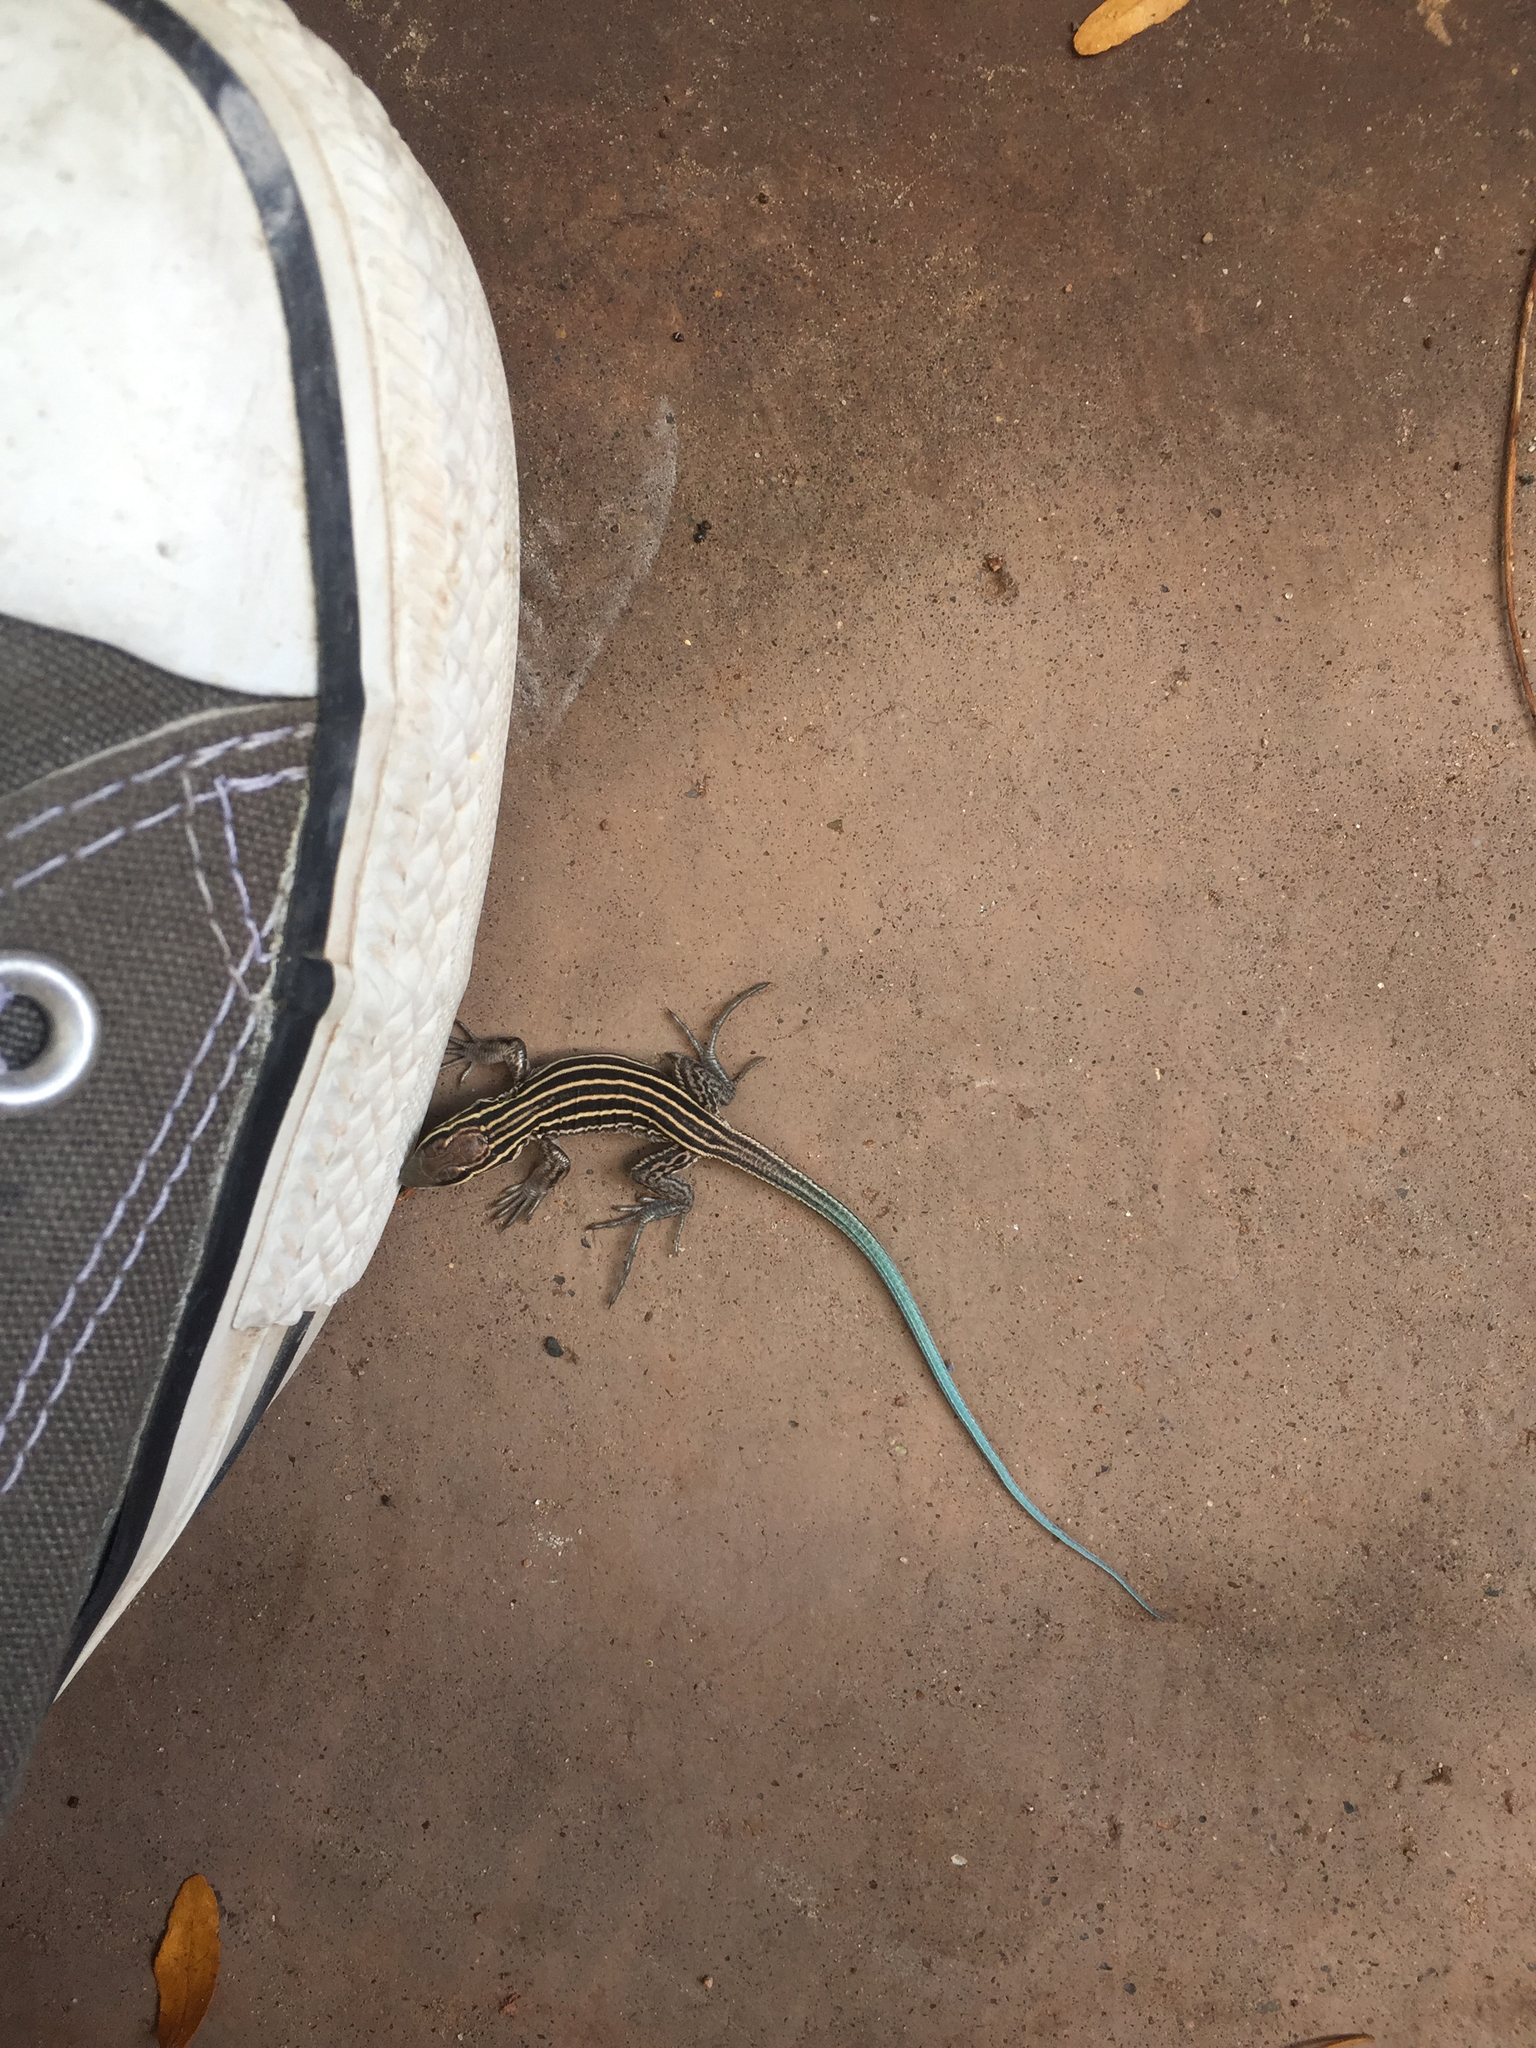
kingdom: Animalia
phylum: Chordata
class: Squamata
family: Teiidae
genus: Aspidoscelis
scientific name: Aspidoscelis velox
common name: Plateau striped whiptail
